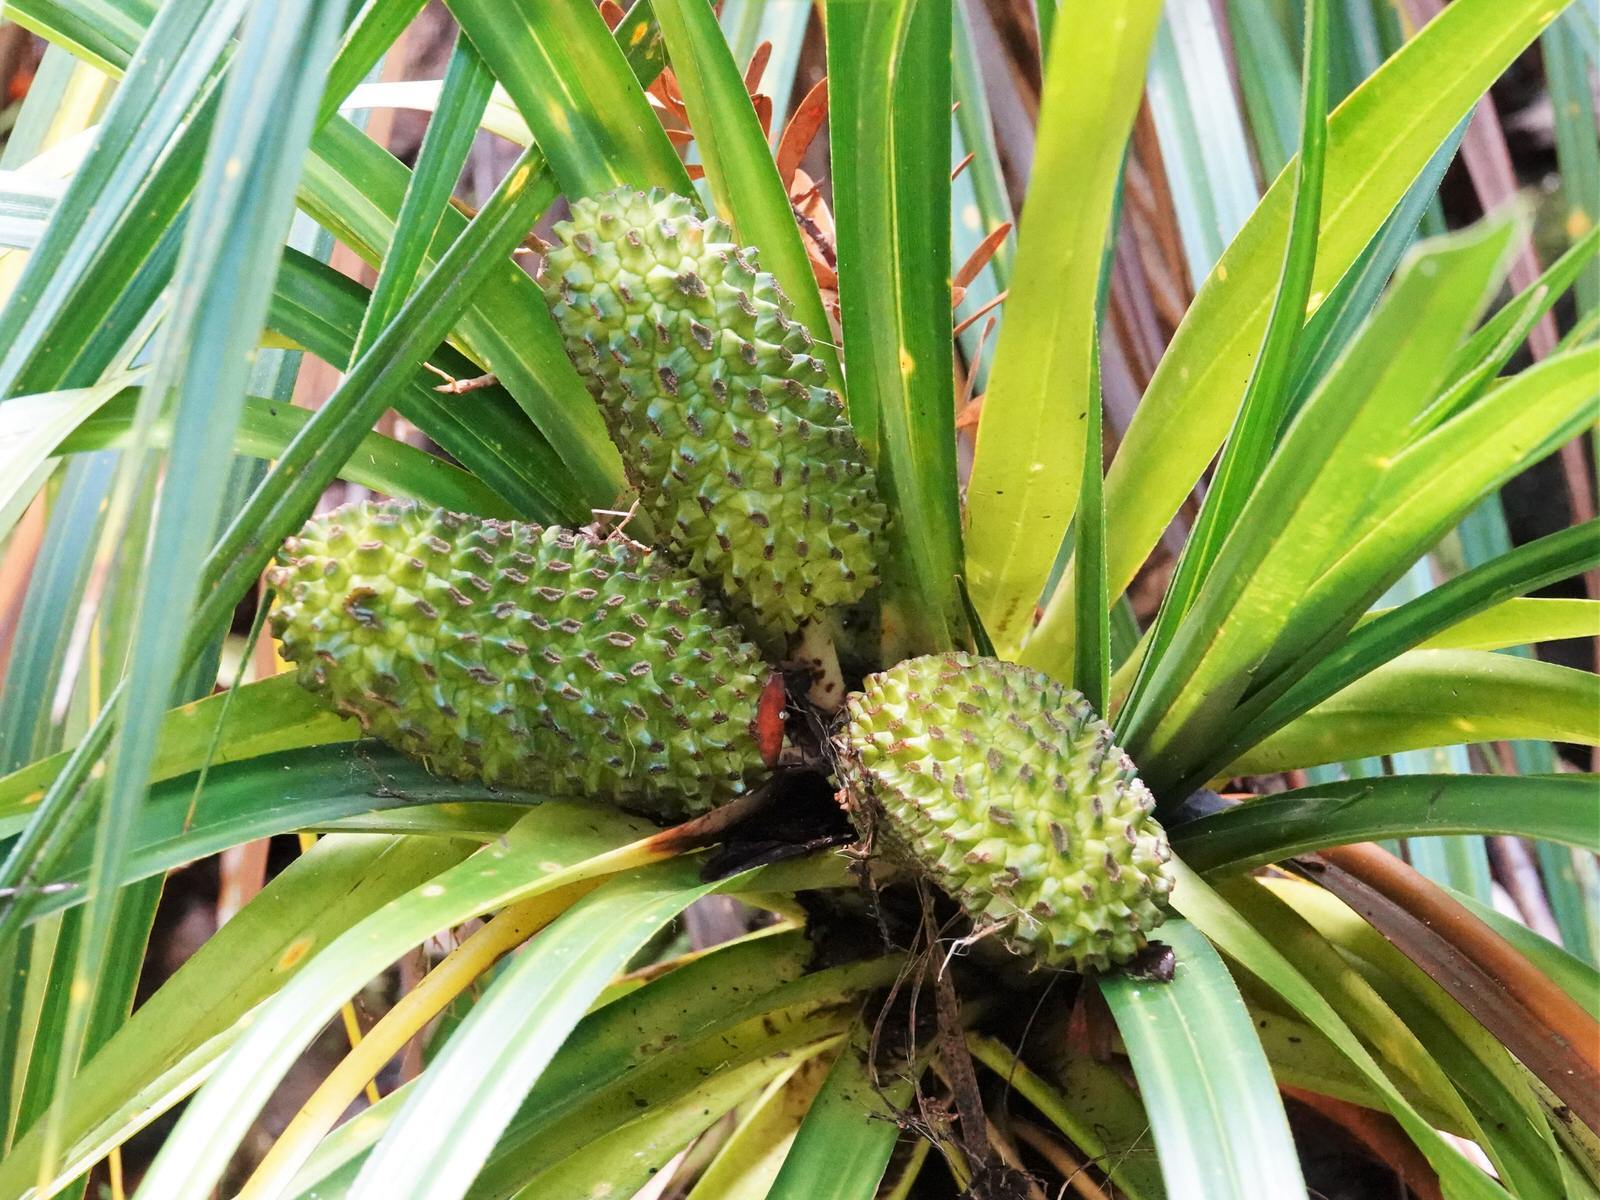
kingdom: Plantae
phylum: Tracheophyta
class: Liliopsida
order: Pandanales
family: Pandanaceae
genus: Freycinetia
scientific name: Freycinetia banksii
